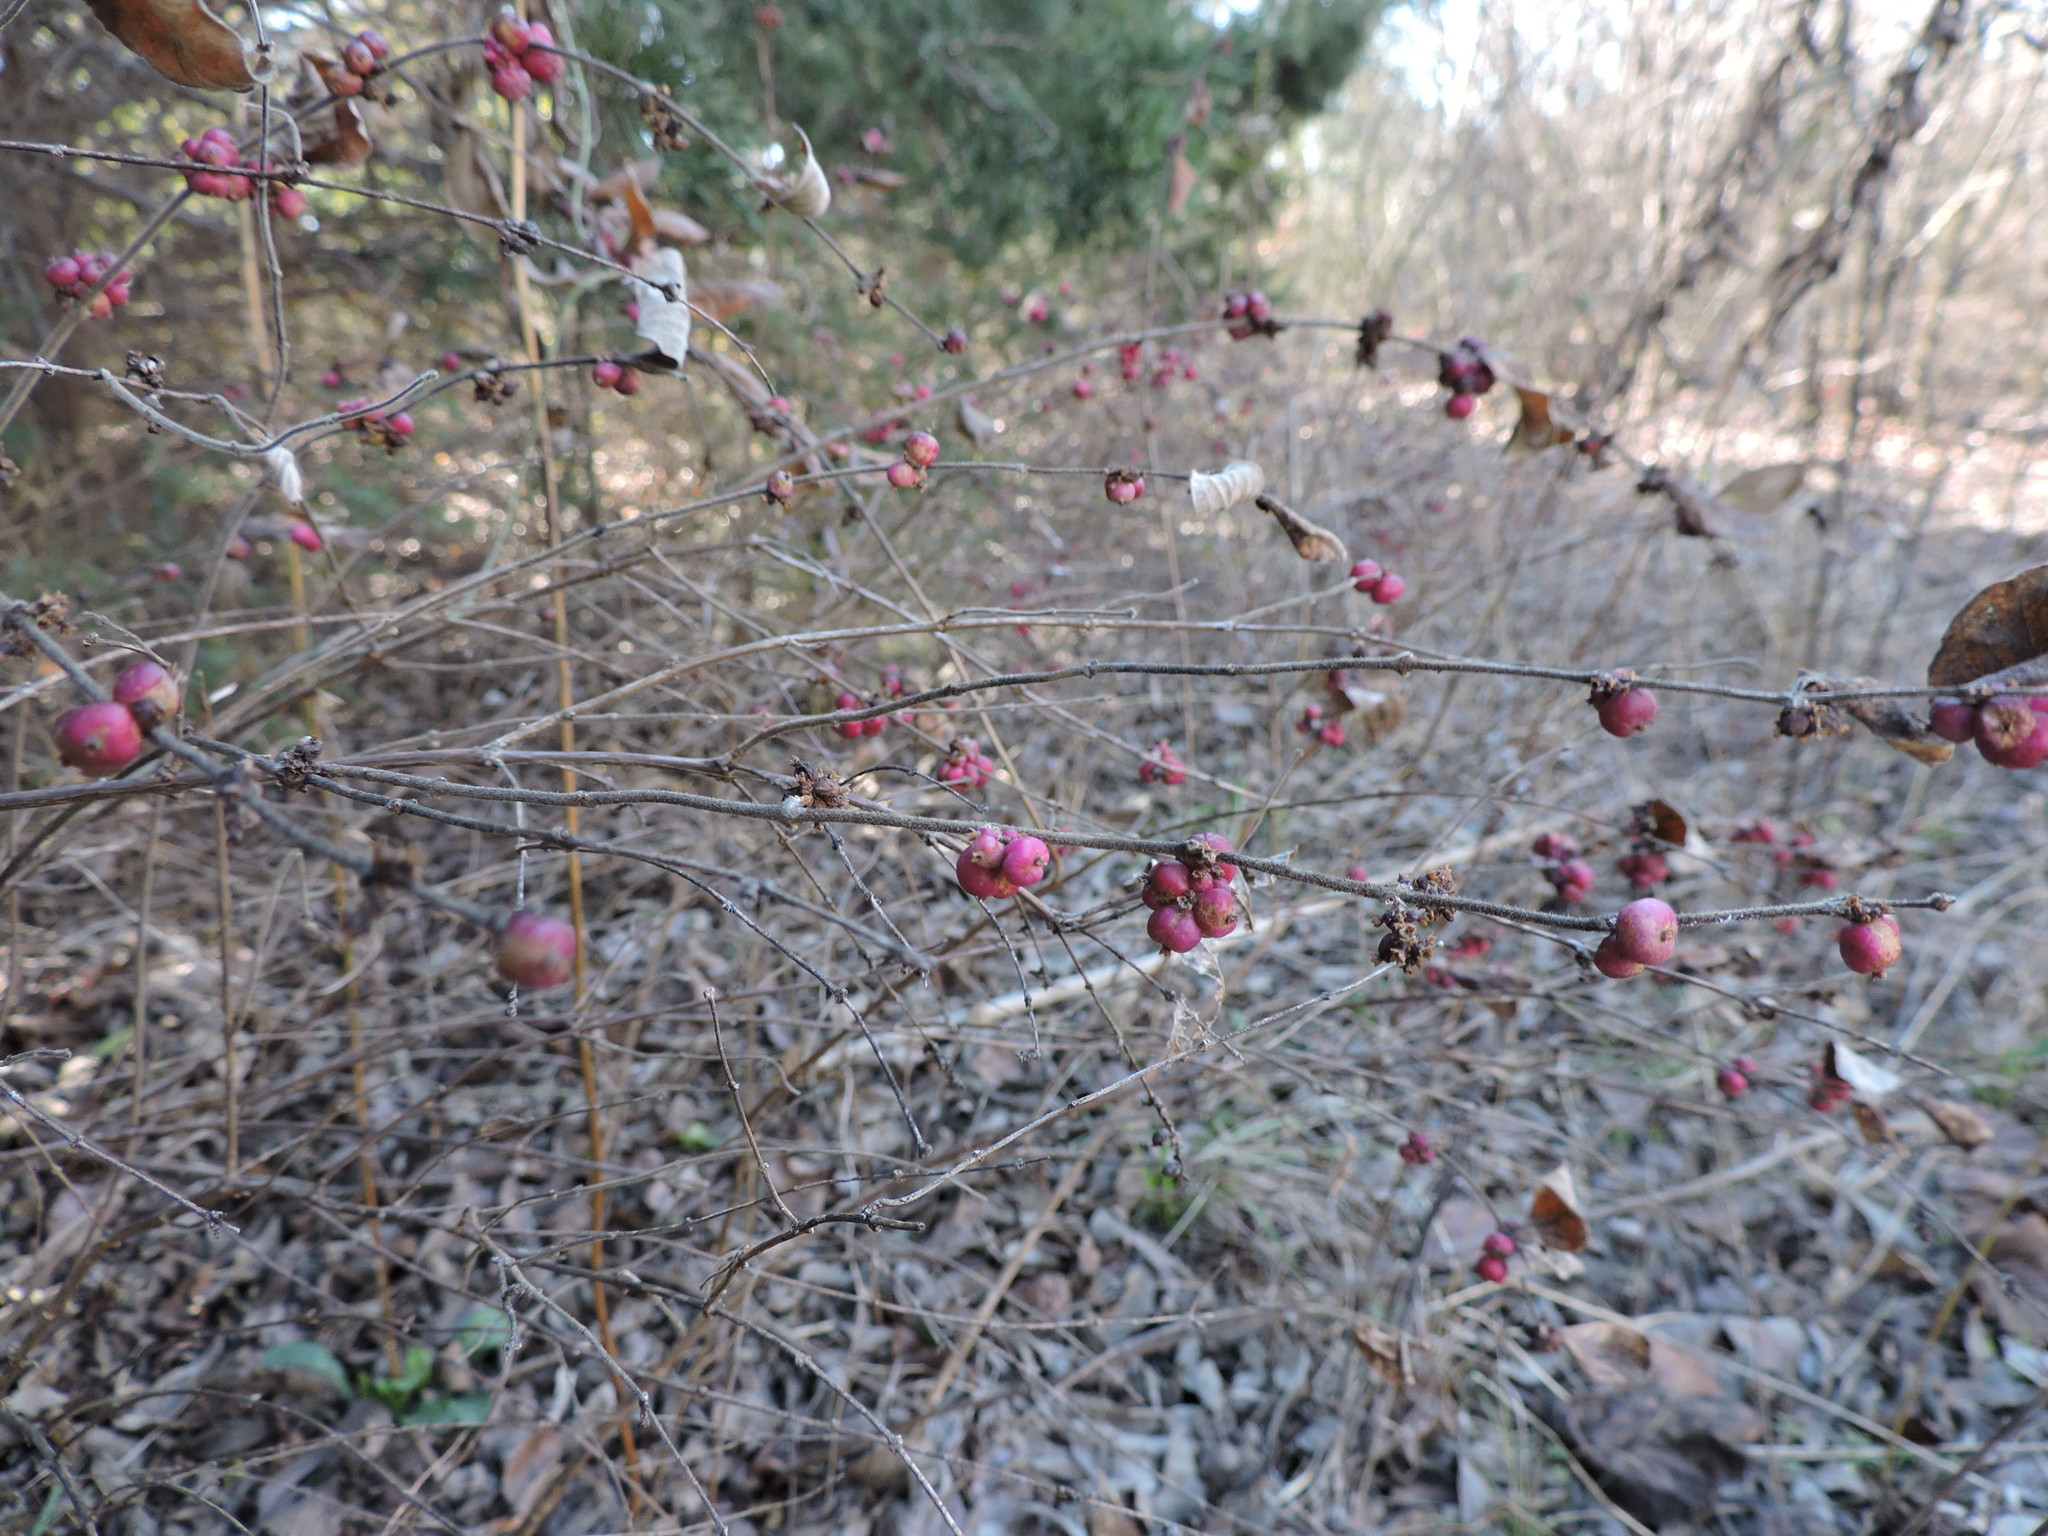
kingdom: Plantae
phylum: Tracheophyta
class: Magnoliopsida
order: Dipsacales
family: Caprifoliaceae
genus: Symphoricarpos
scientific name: Symphoricarpos orbiculatus
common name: Coralberry
